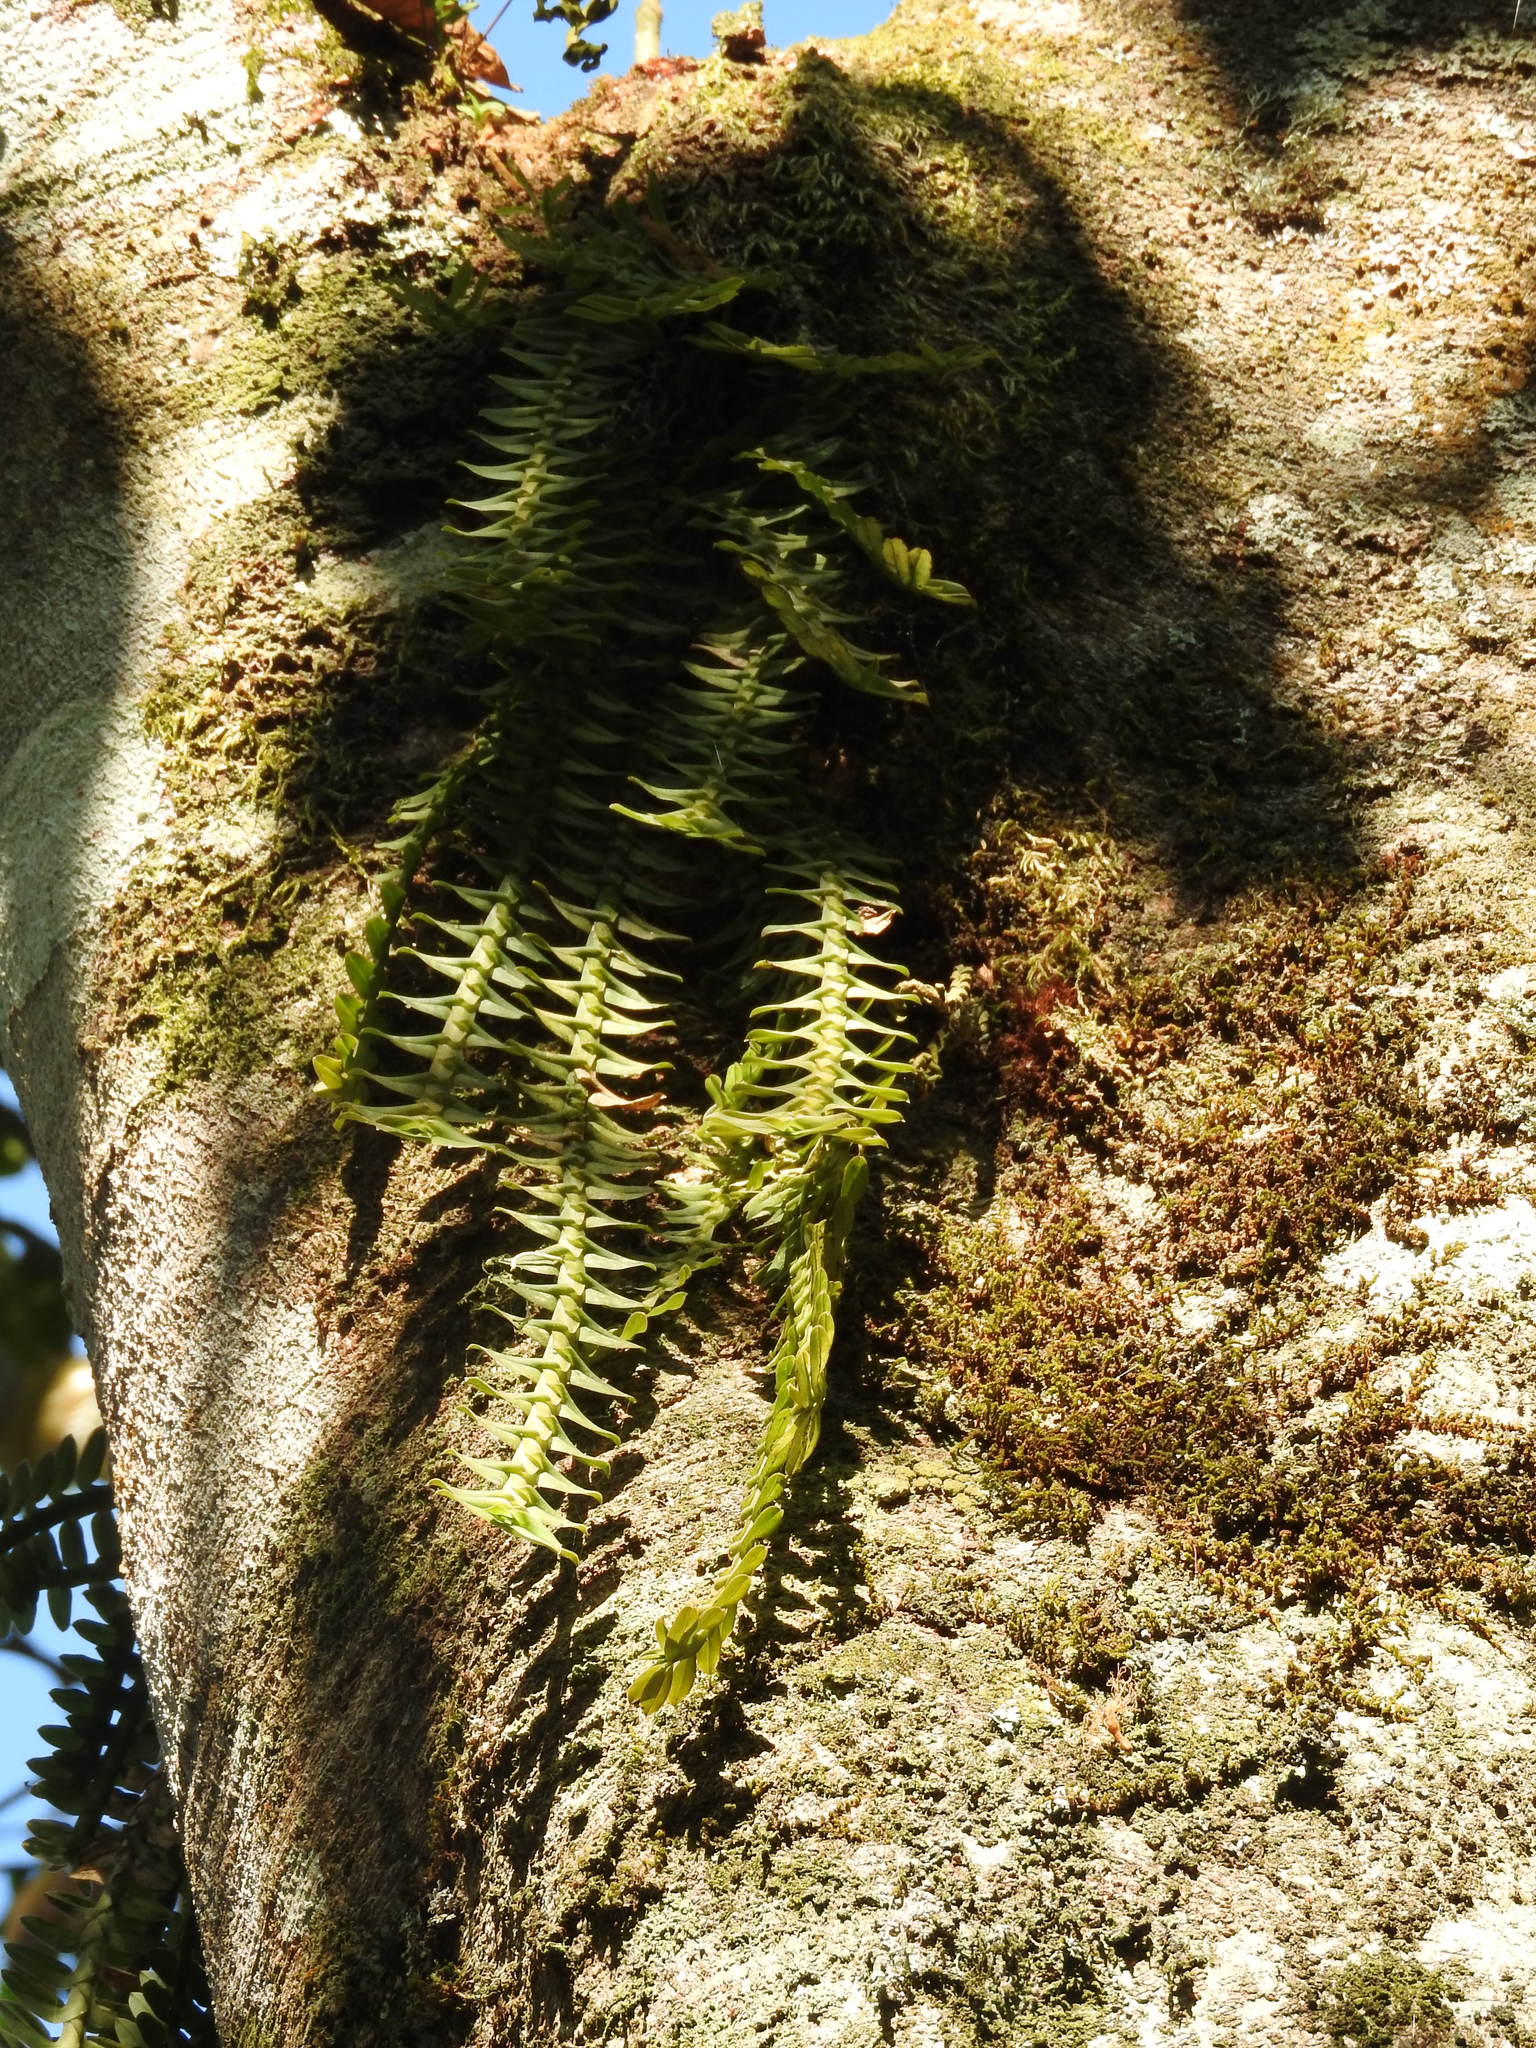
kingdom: Plantae
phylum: Tracheophyta
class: Liliopsida
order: Asparagales
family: Orchidaceae
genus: Dichaea
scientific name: Dichaea muricatoides
